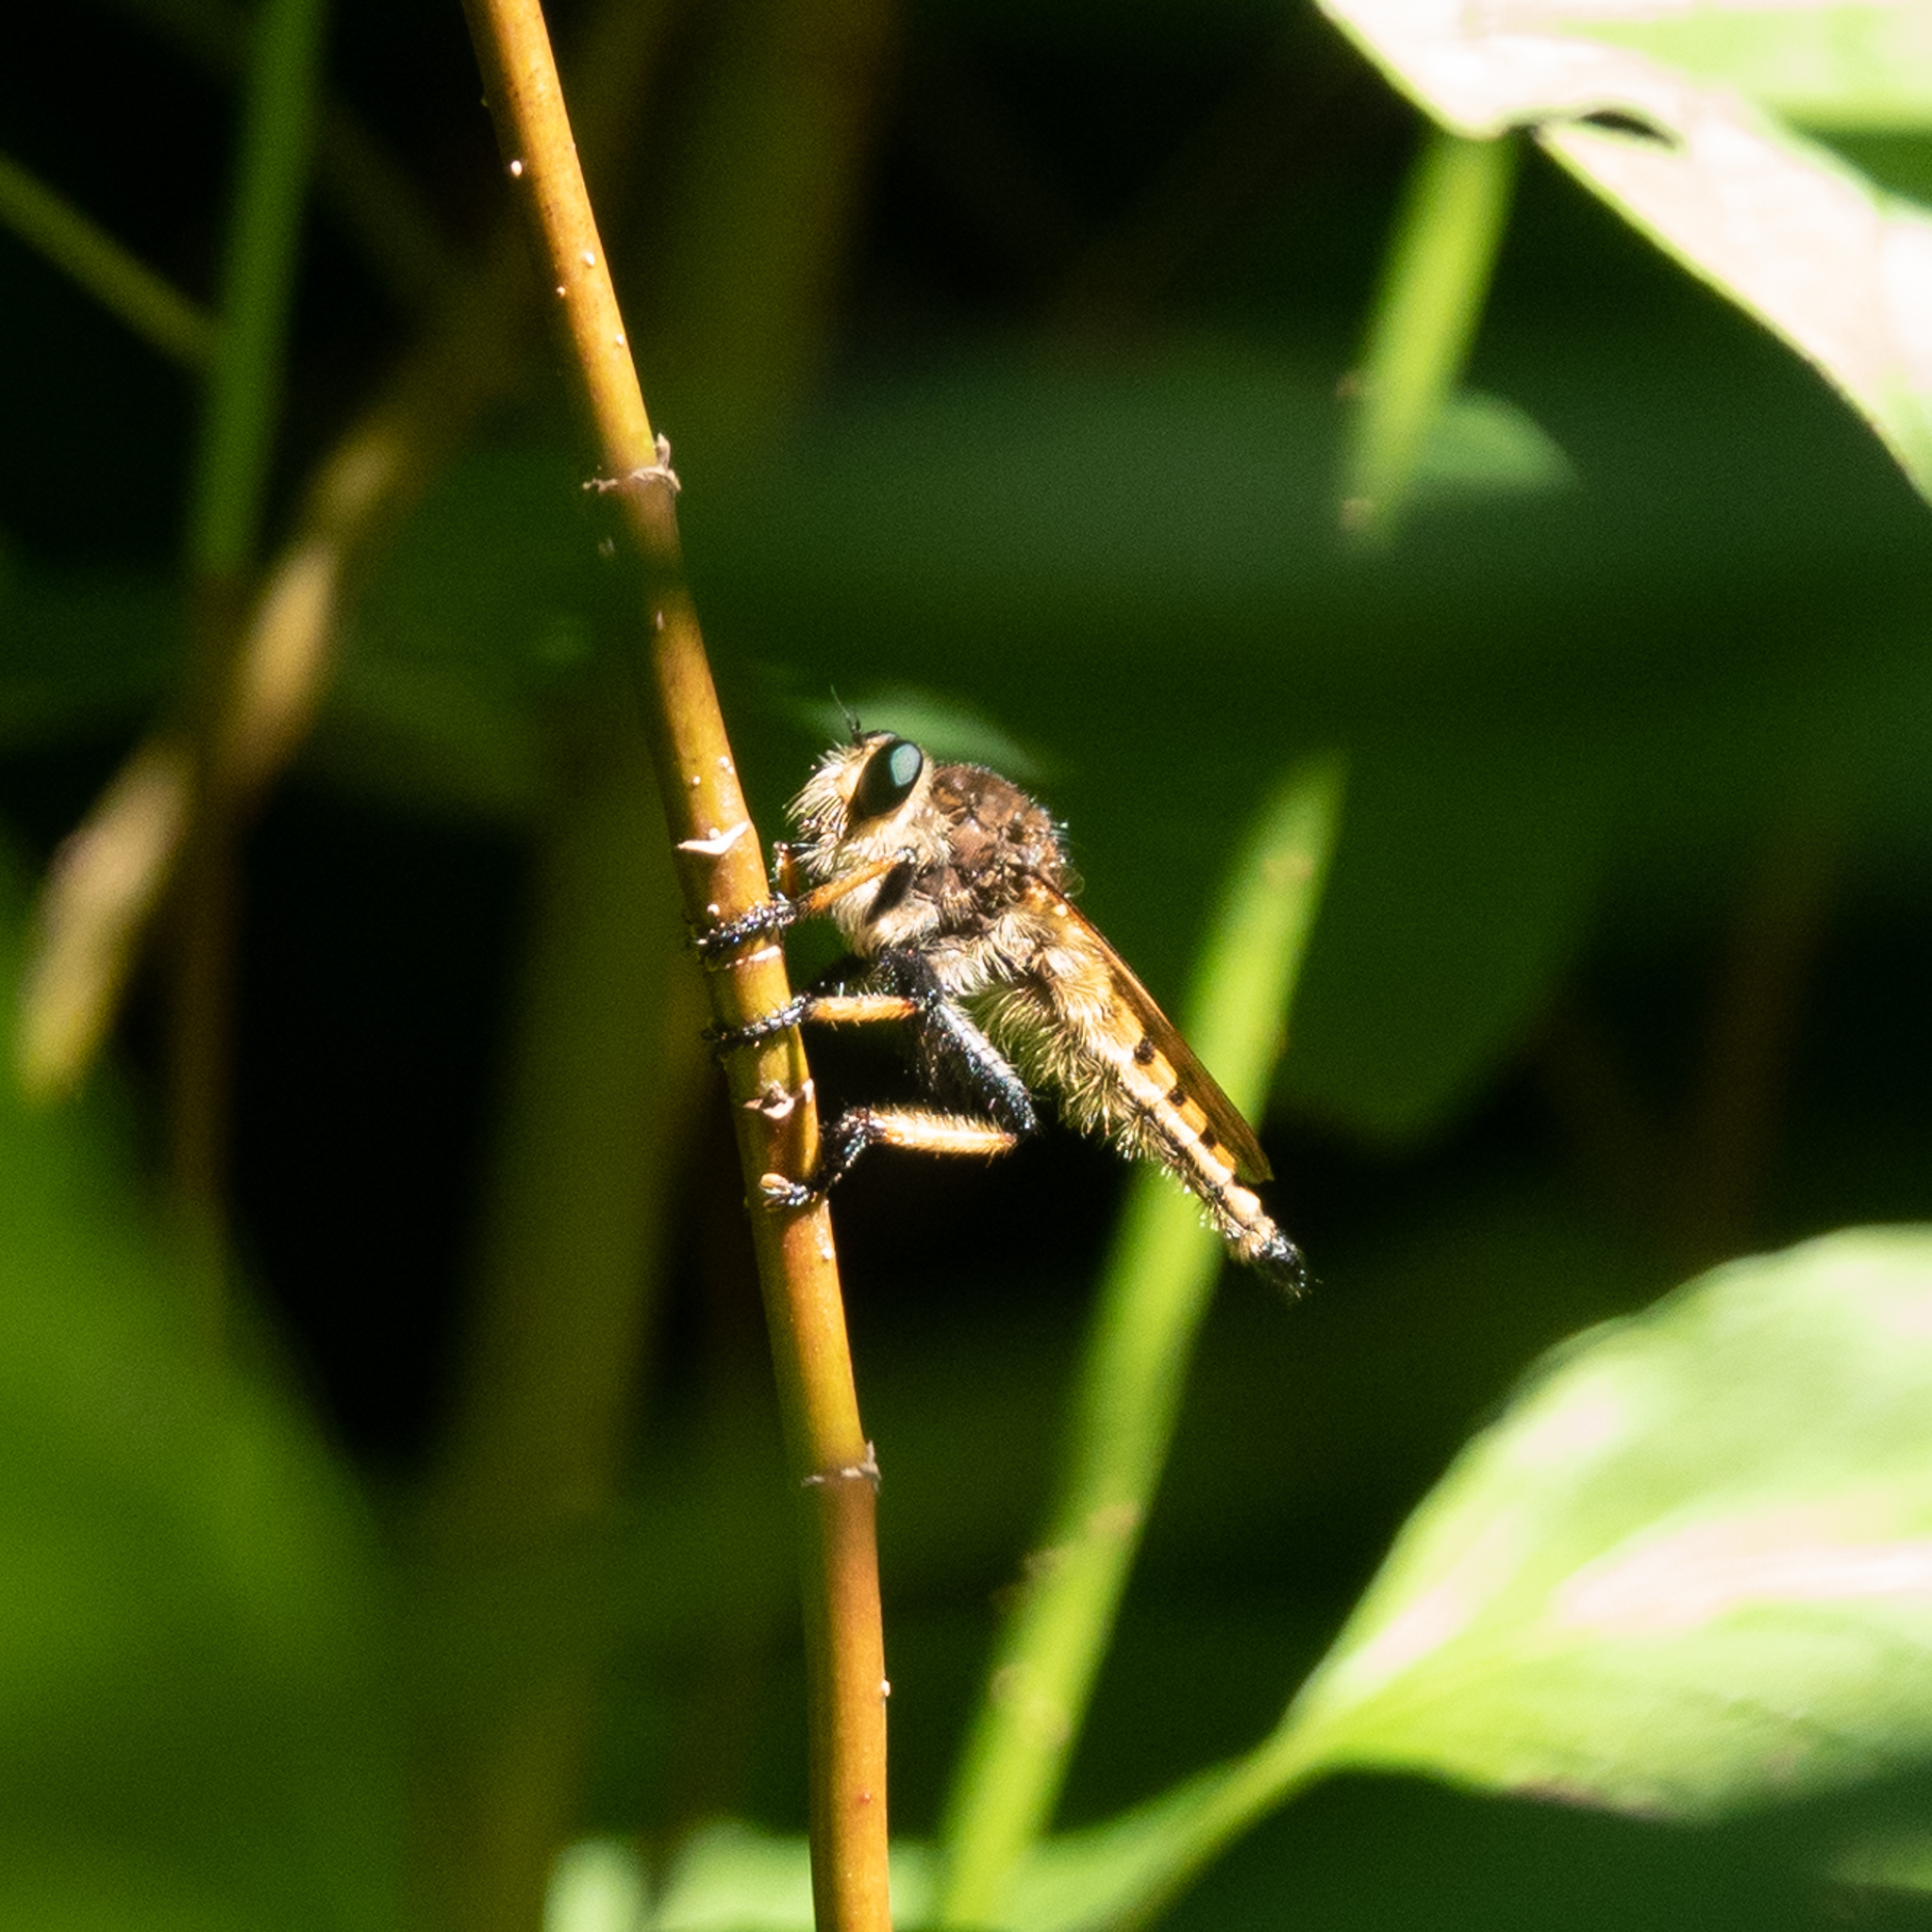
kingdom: Animalia
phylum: Arthropoda
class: Insecta
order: Diptera
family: Asilidae
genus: Promachus
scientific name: Promachus rufipes
